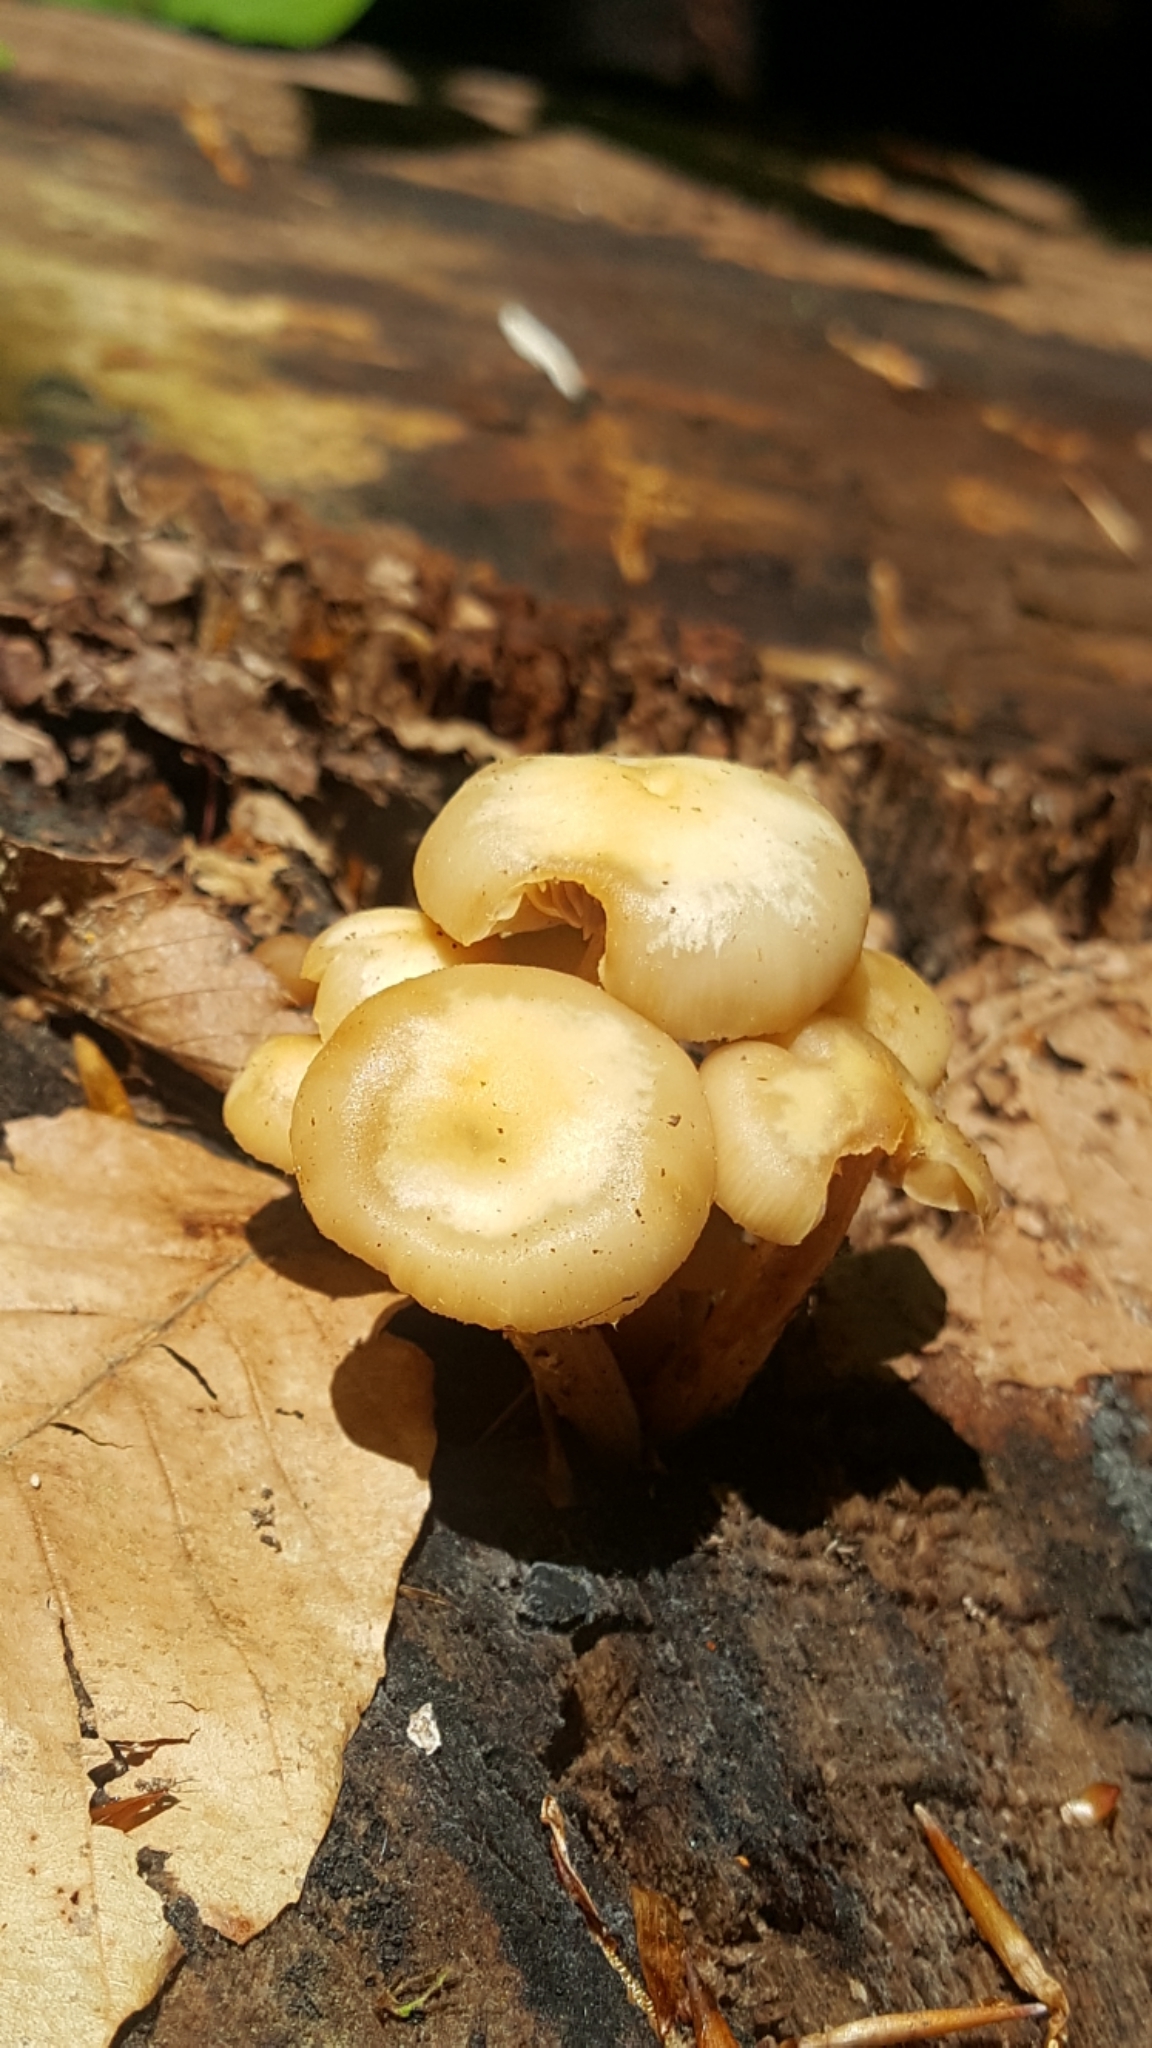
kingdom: Fungi
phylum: Basidiomycota
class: Agaricomycetes
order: Agaricales
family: Strophariaceae
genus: Kuehneromyces
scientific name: Kuehneromyces marginellus
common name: Sheathed woodtuft
